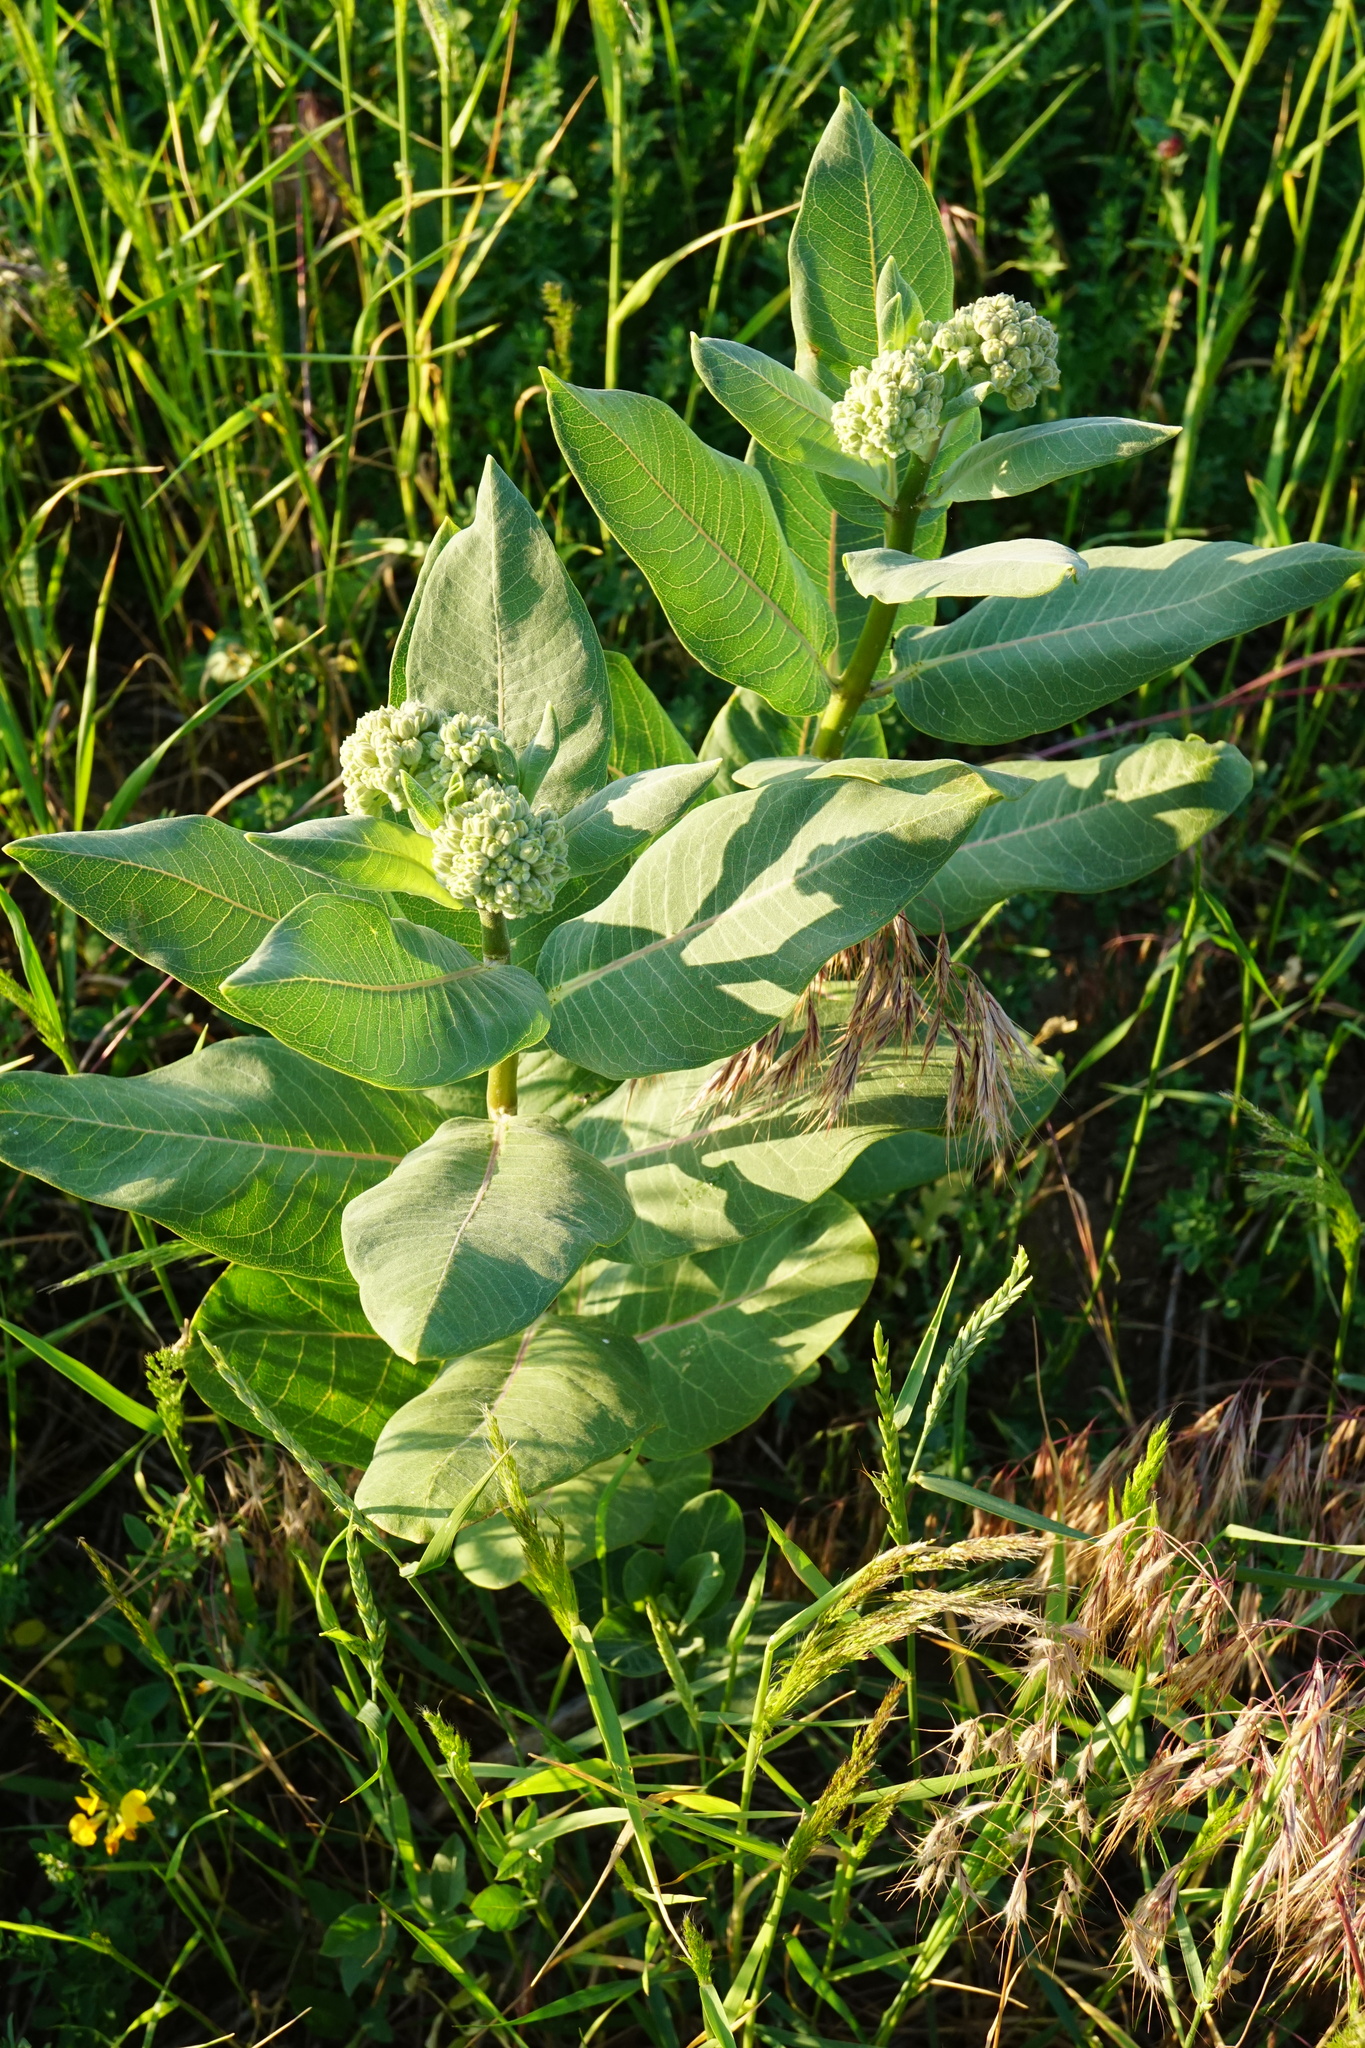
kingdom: Plantae
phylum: Tracheophyta
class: Magnoliopsida
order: Gentianales
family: Apocynaceae
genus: Asclepias
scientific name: Asclepias syriaca
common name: Common milkweed
